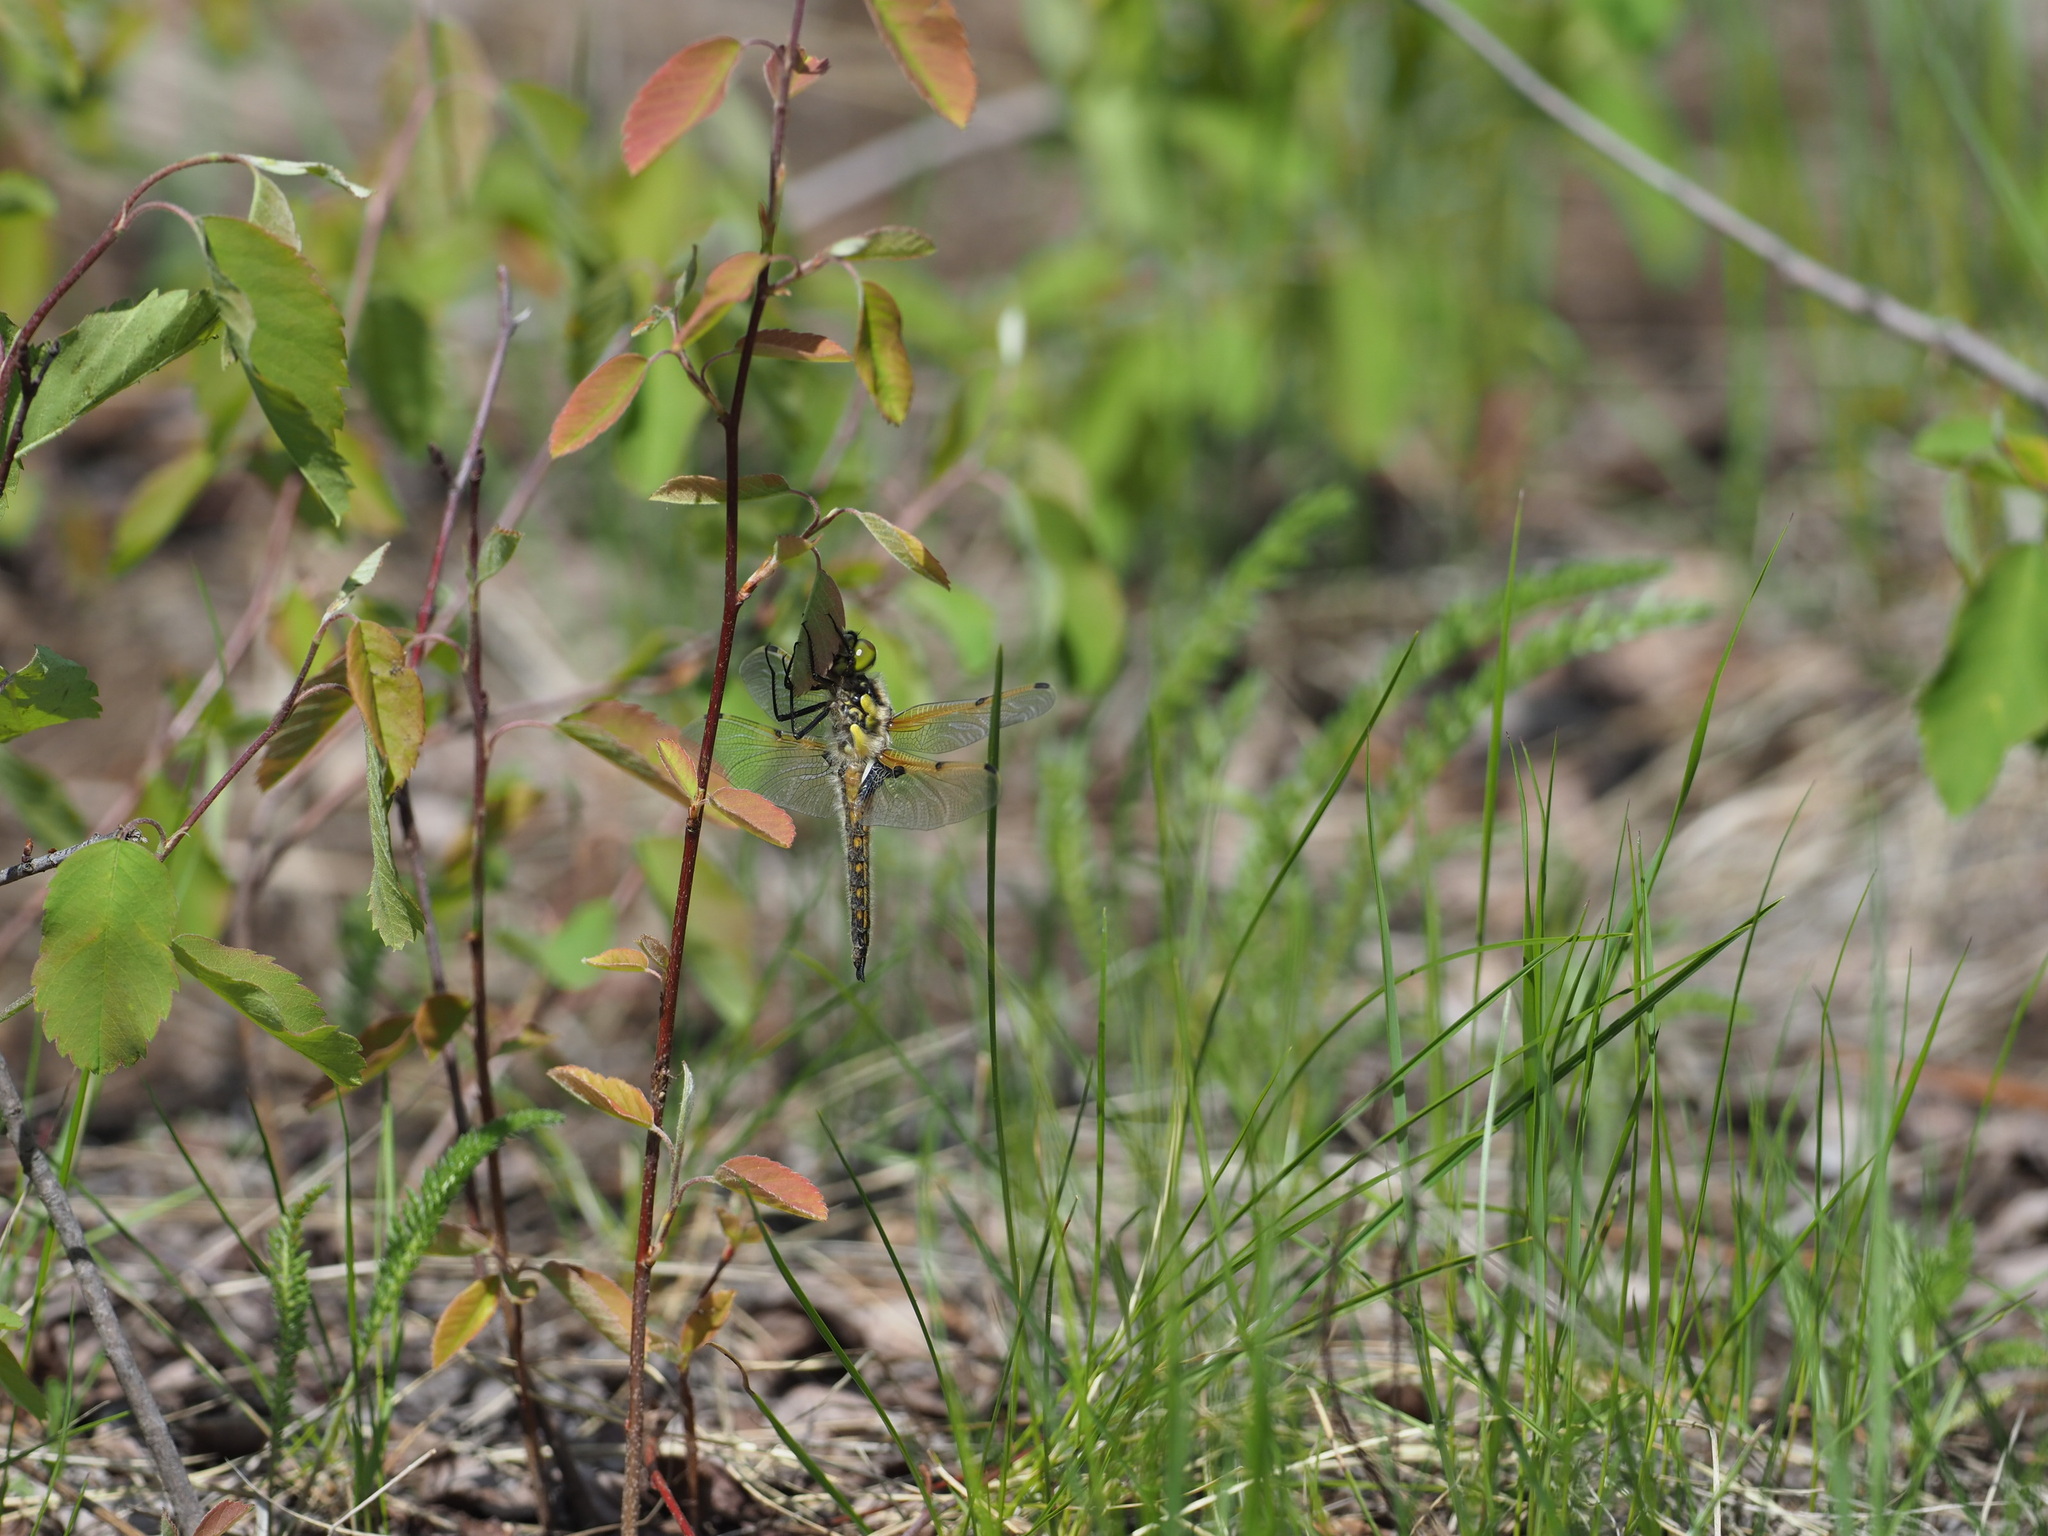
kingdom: Animalia
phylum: Arthropoda
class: Insecta
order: Odonata
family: Libellulidae
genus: Libellula
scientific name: Libellula quadrimaculata
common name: Four-spotted chaser
